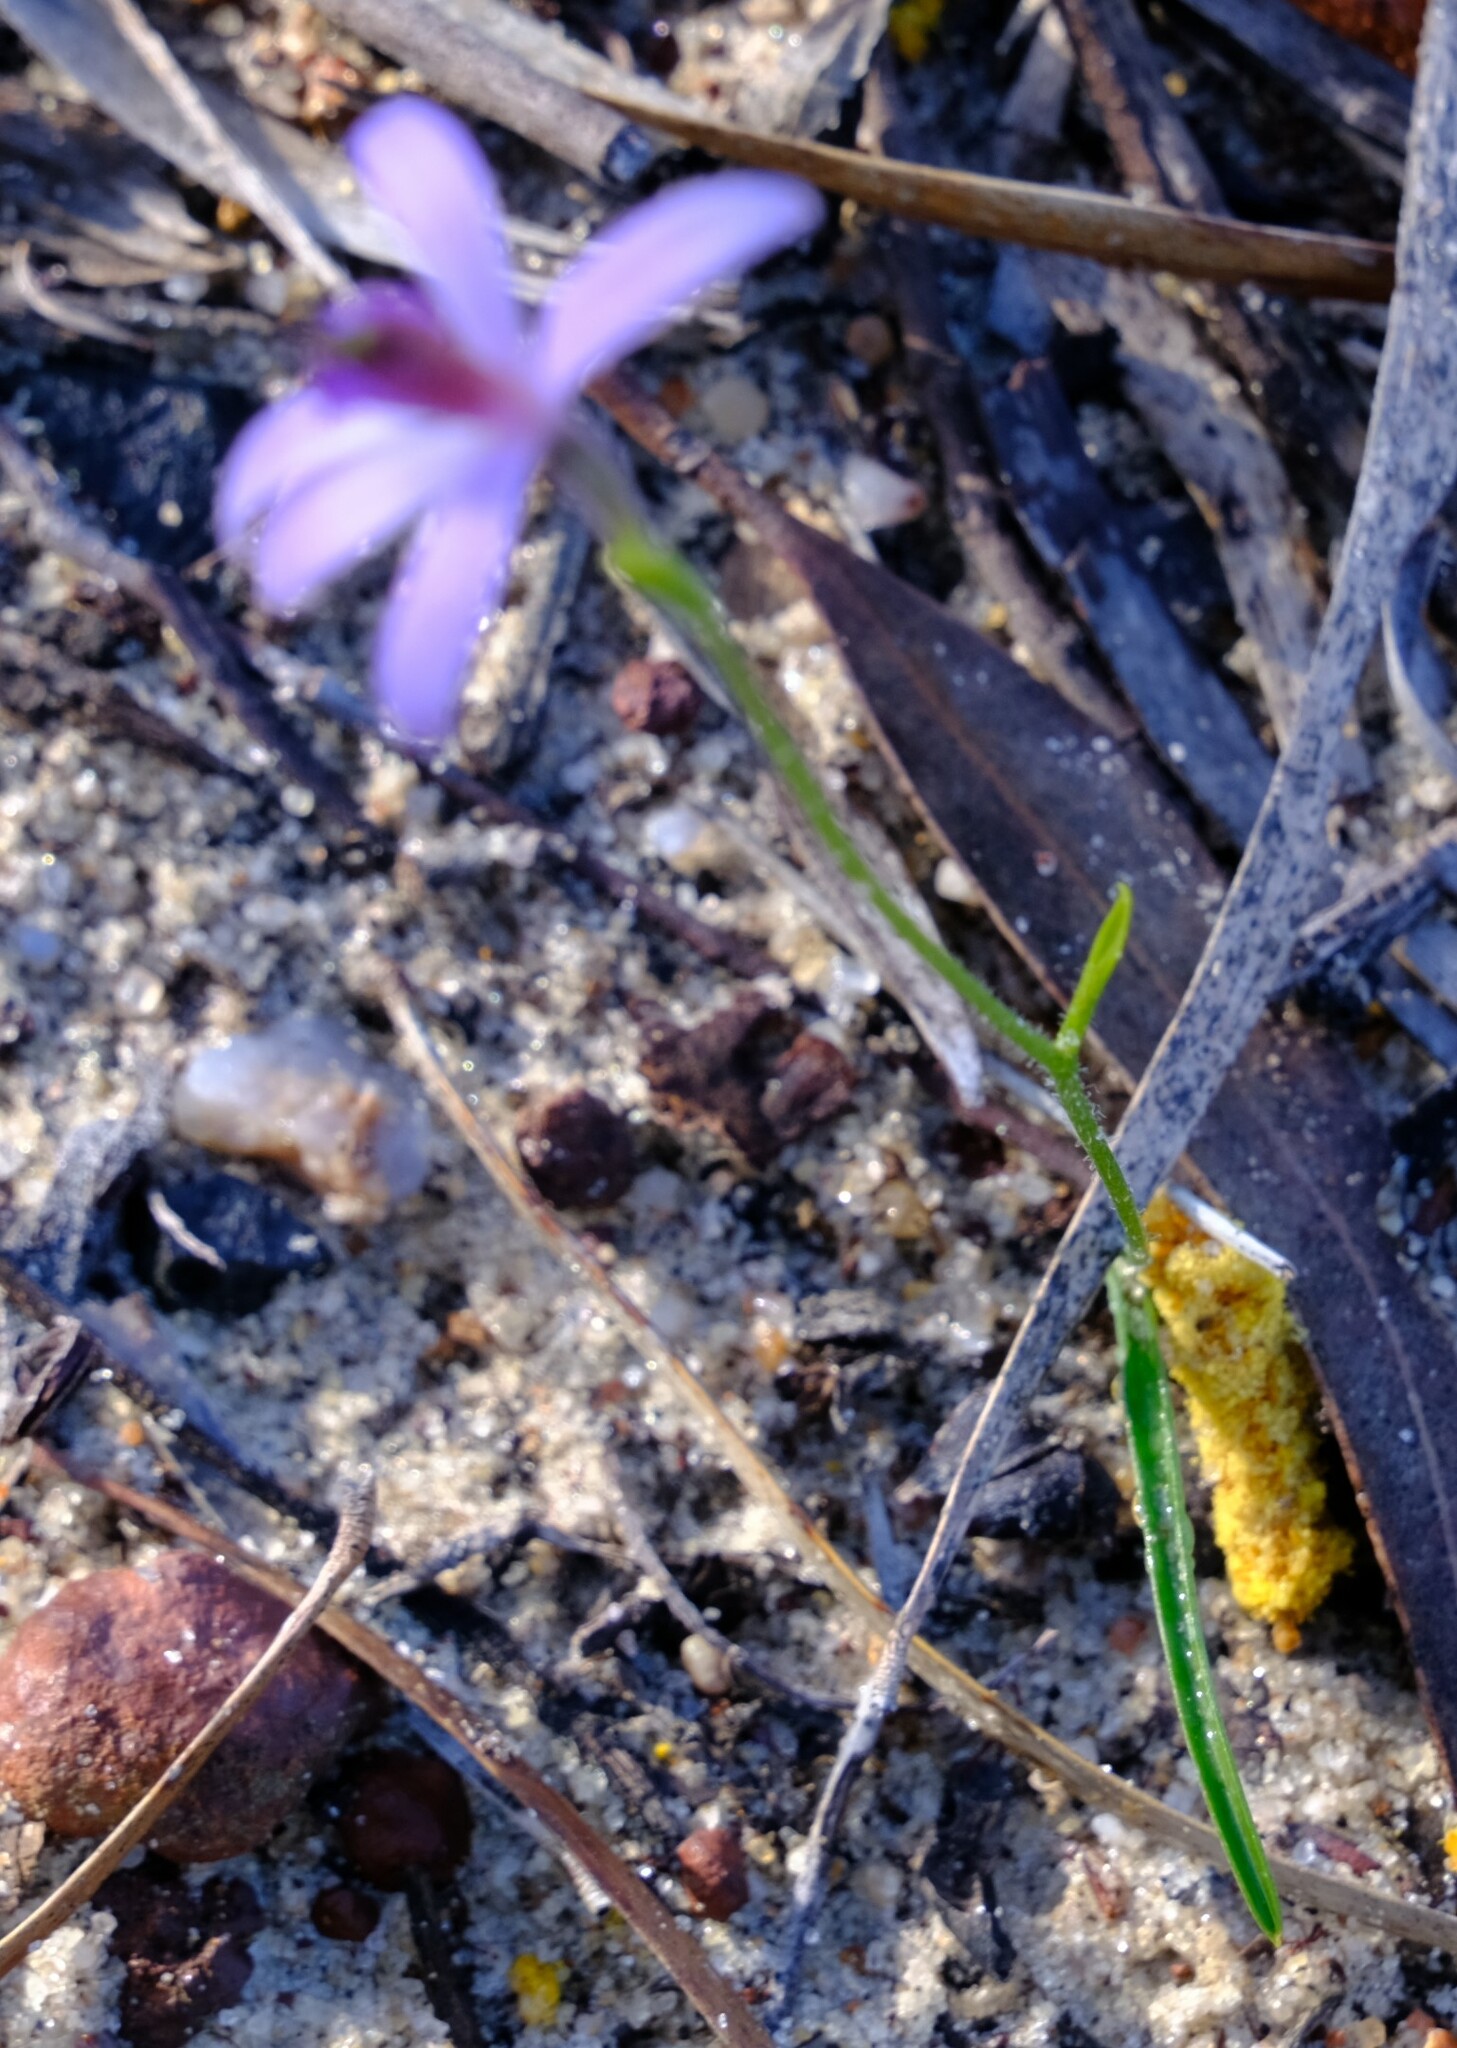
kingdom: Plantae
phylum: Tracheophyta
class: Liliopsida
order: Asparagales
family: Orchidaceae
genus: Pheladenia
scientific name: Pheladenia deformis
